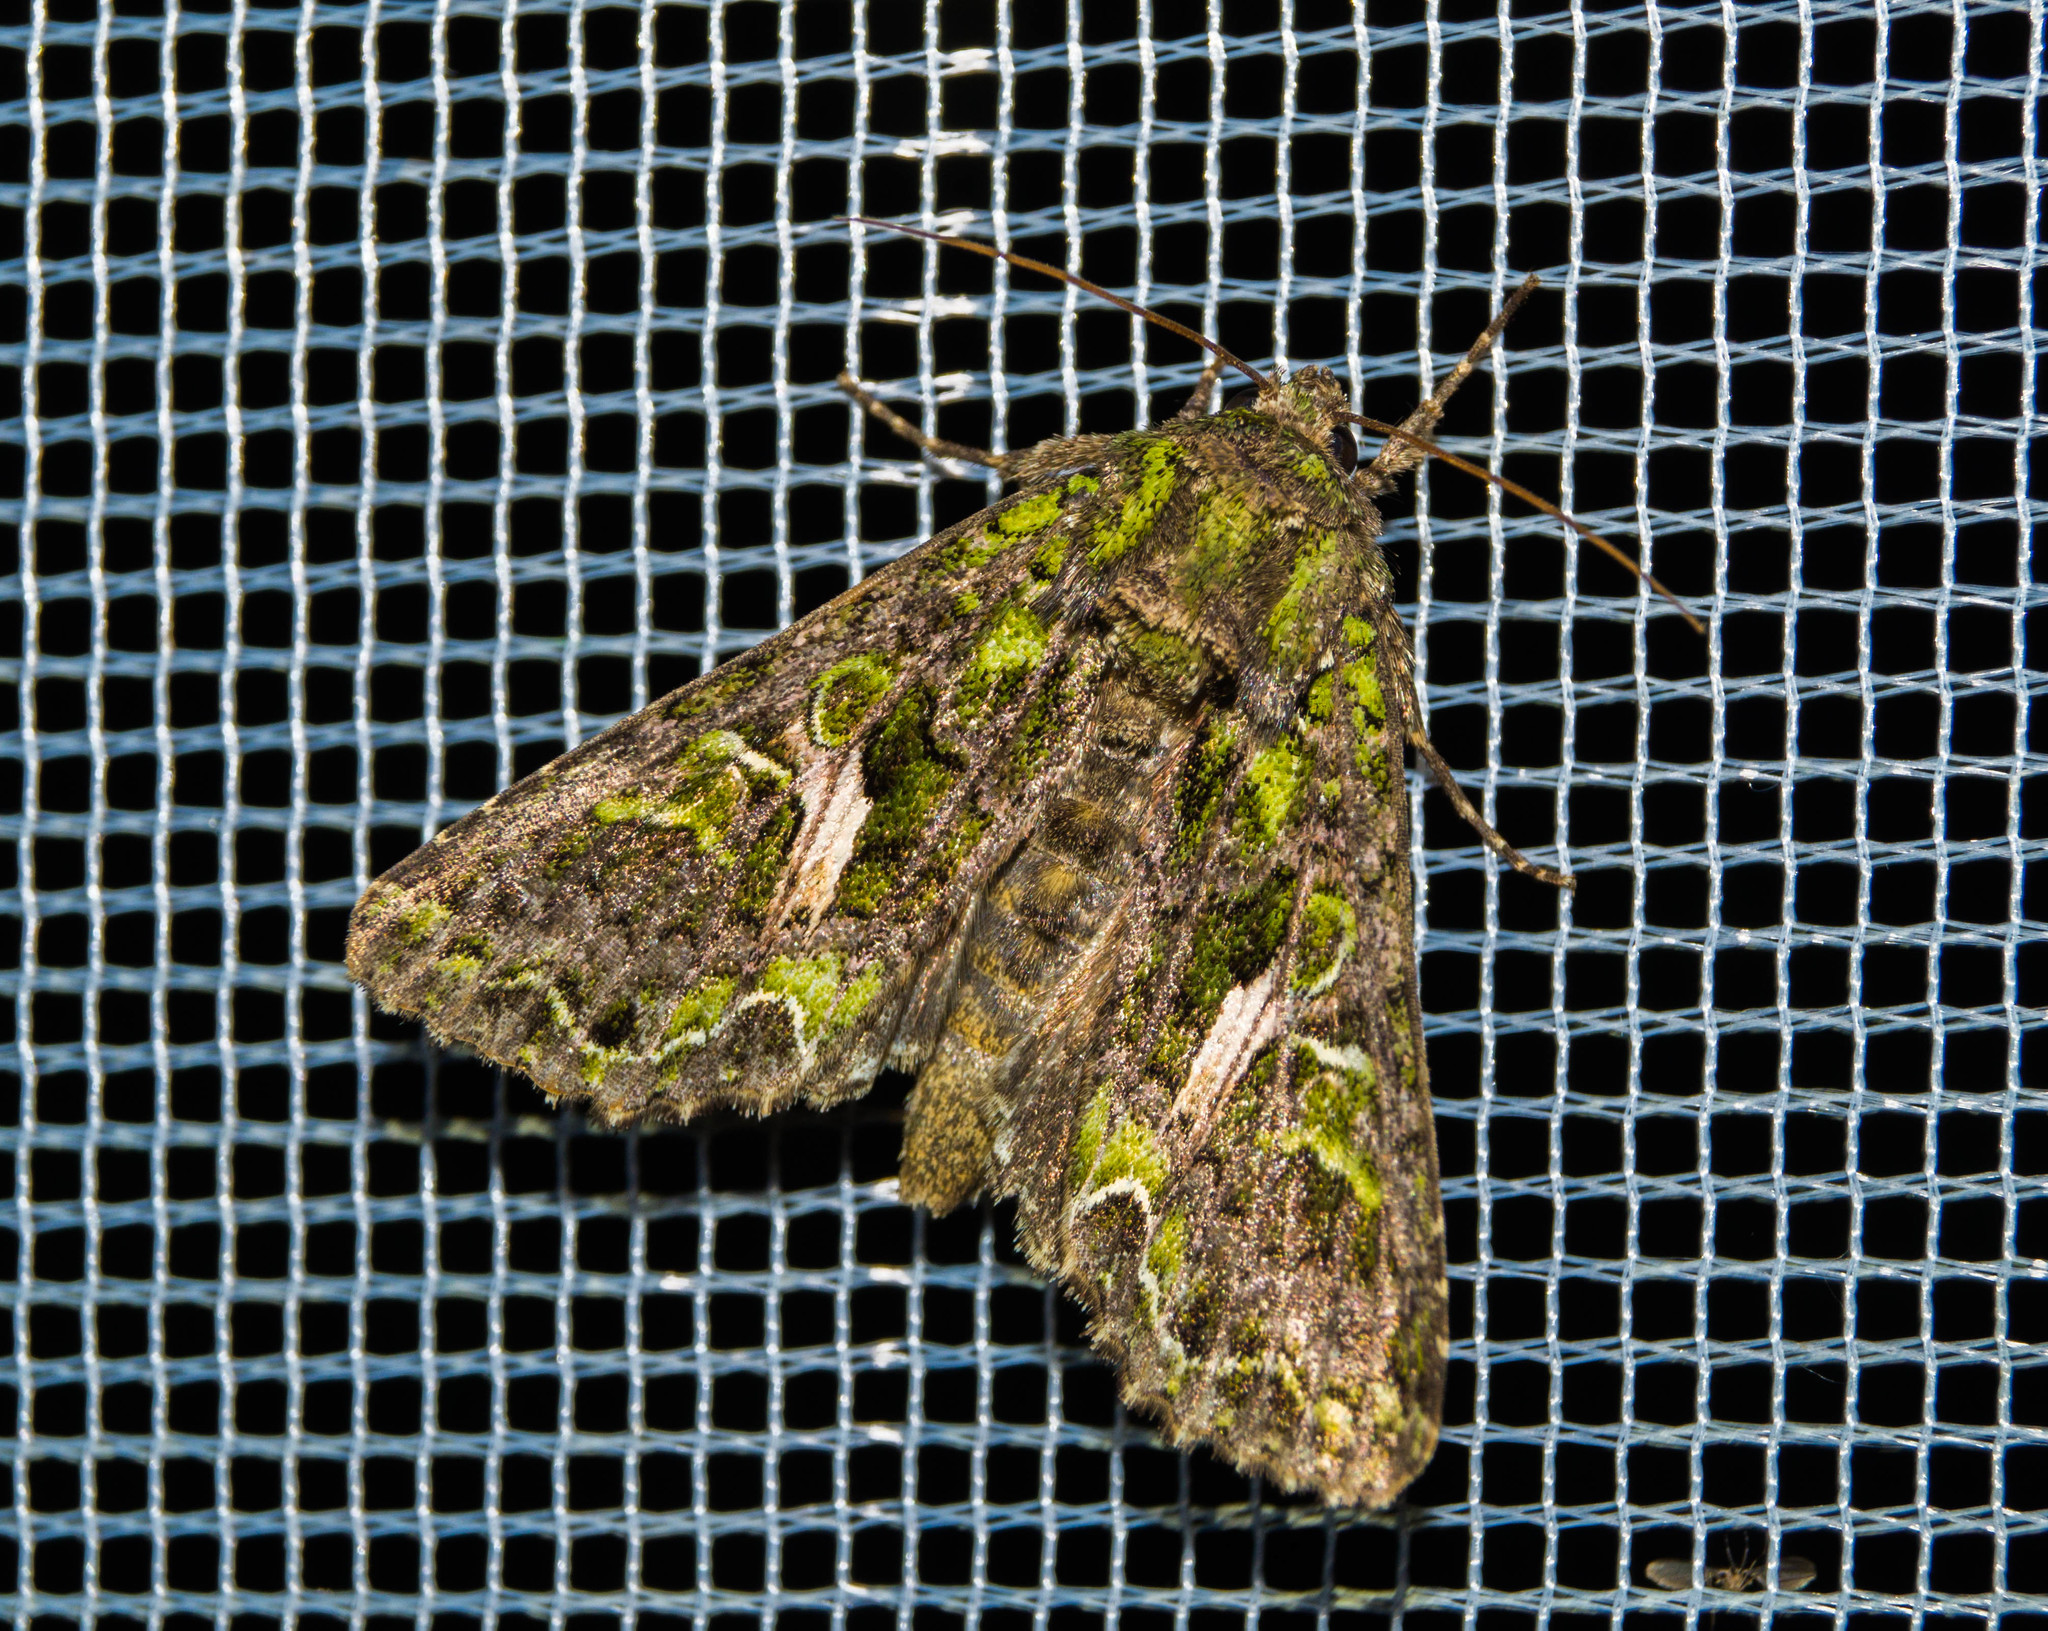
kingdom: Animalia
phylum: Arthropoda
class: Insecta
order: Lepidoptera
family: Noctuidae
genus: Trachea
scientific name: Trachea atriplicis
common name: Orache moth
